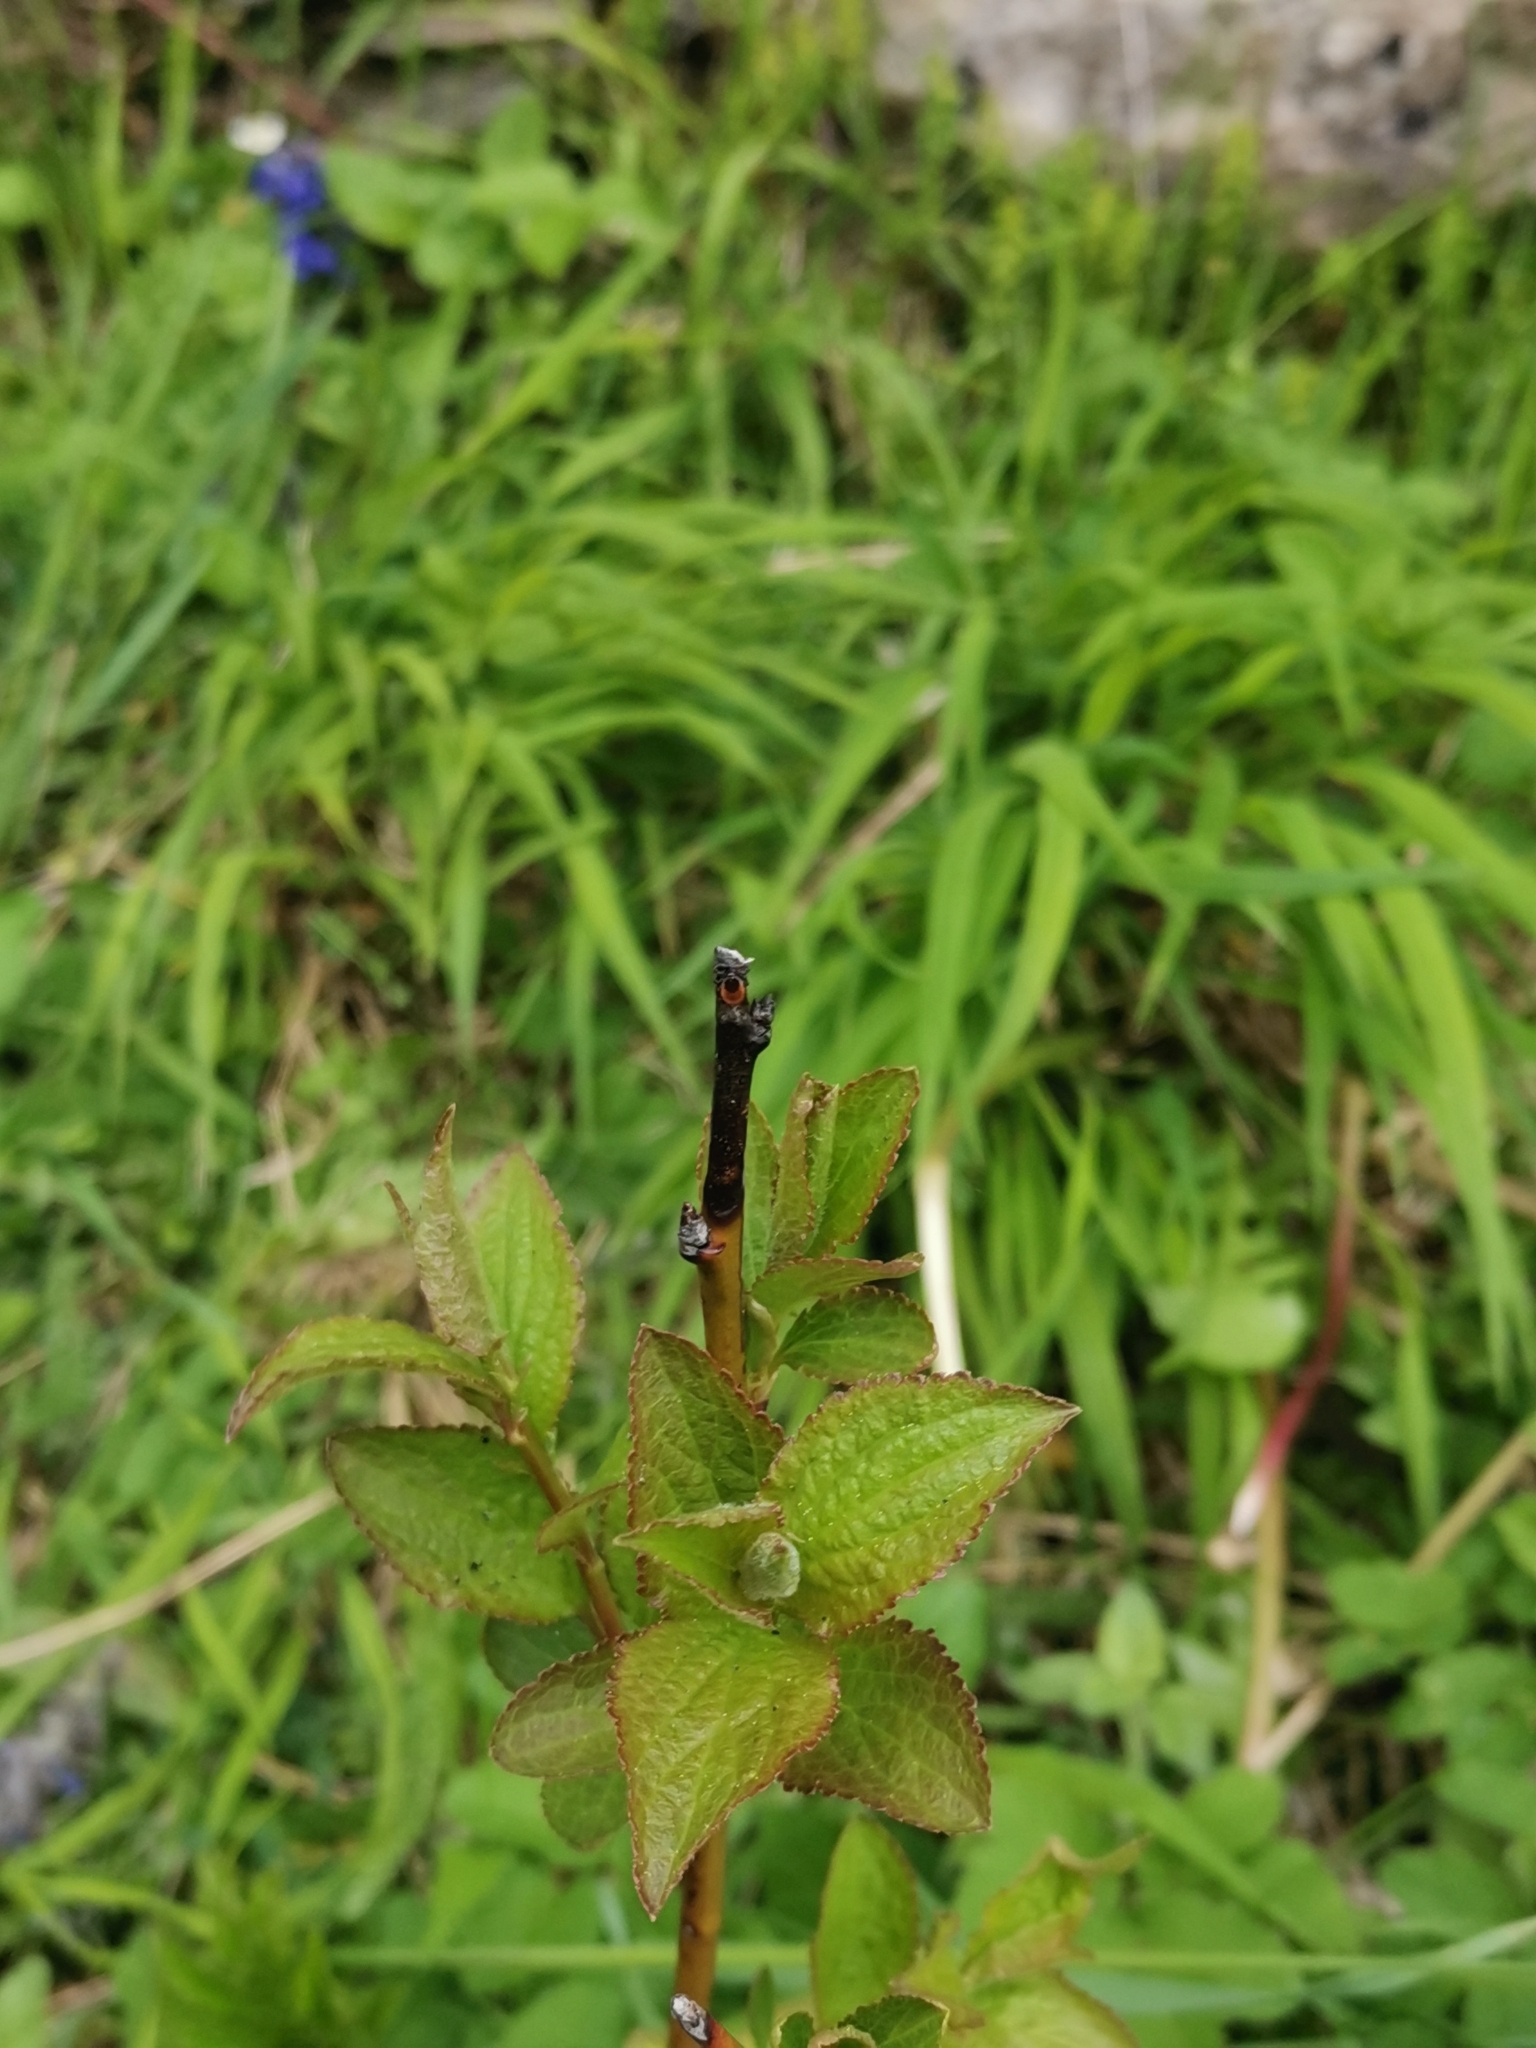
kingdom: Animalia
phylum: Arthropoda
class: Arachnida
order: Ixodida
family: Ixodidae
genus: Ixodes
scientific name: Ixodes ricinus
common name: Castor bean tick
